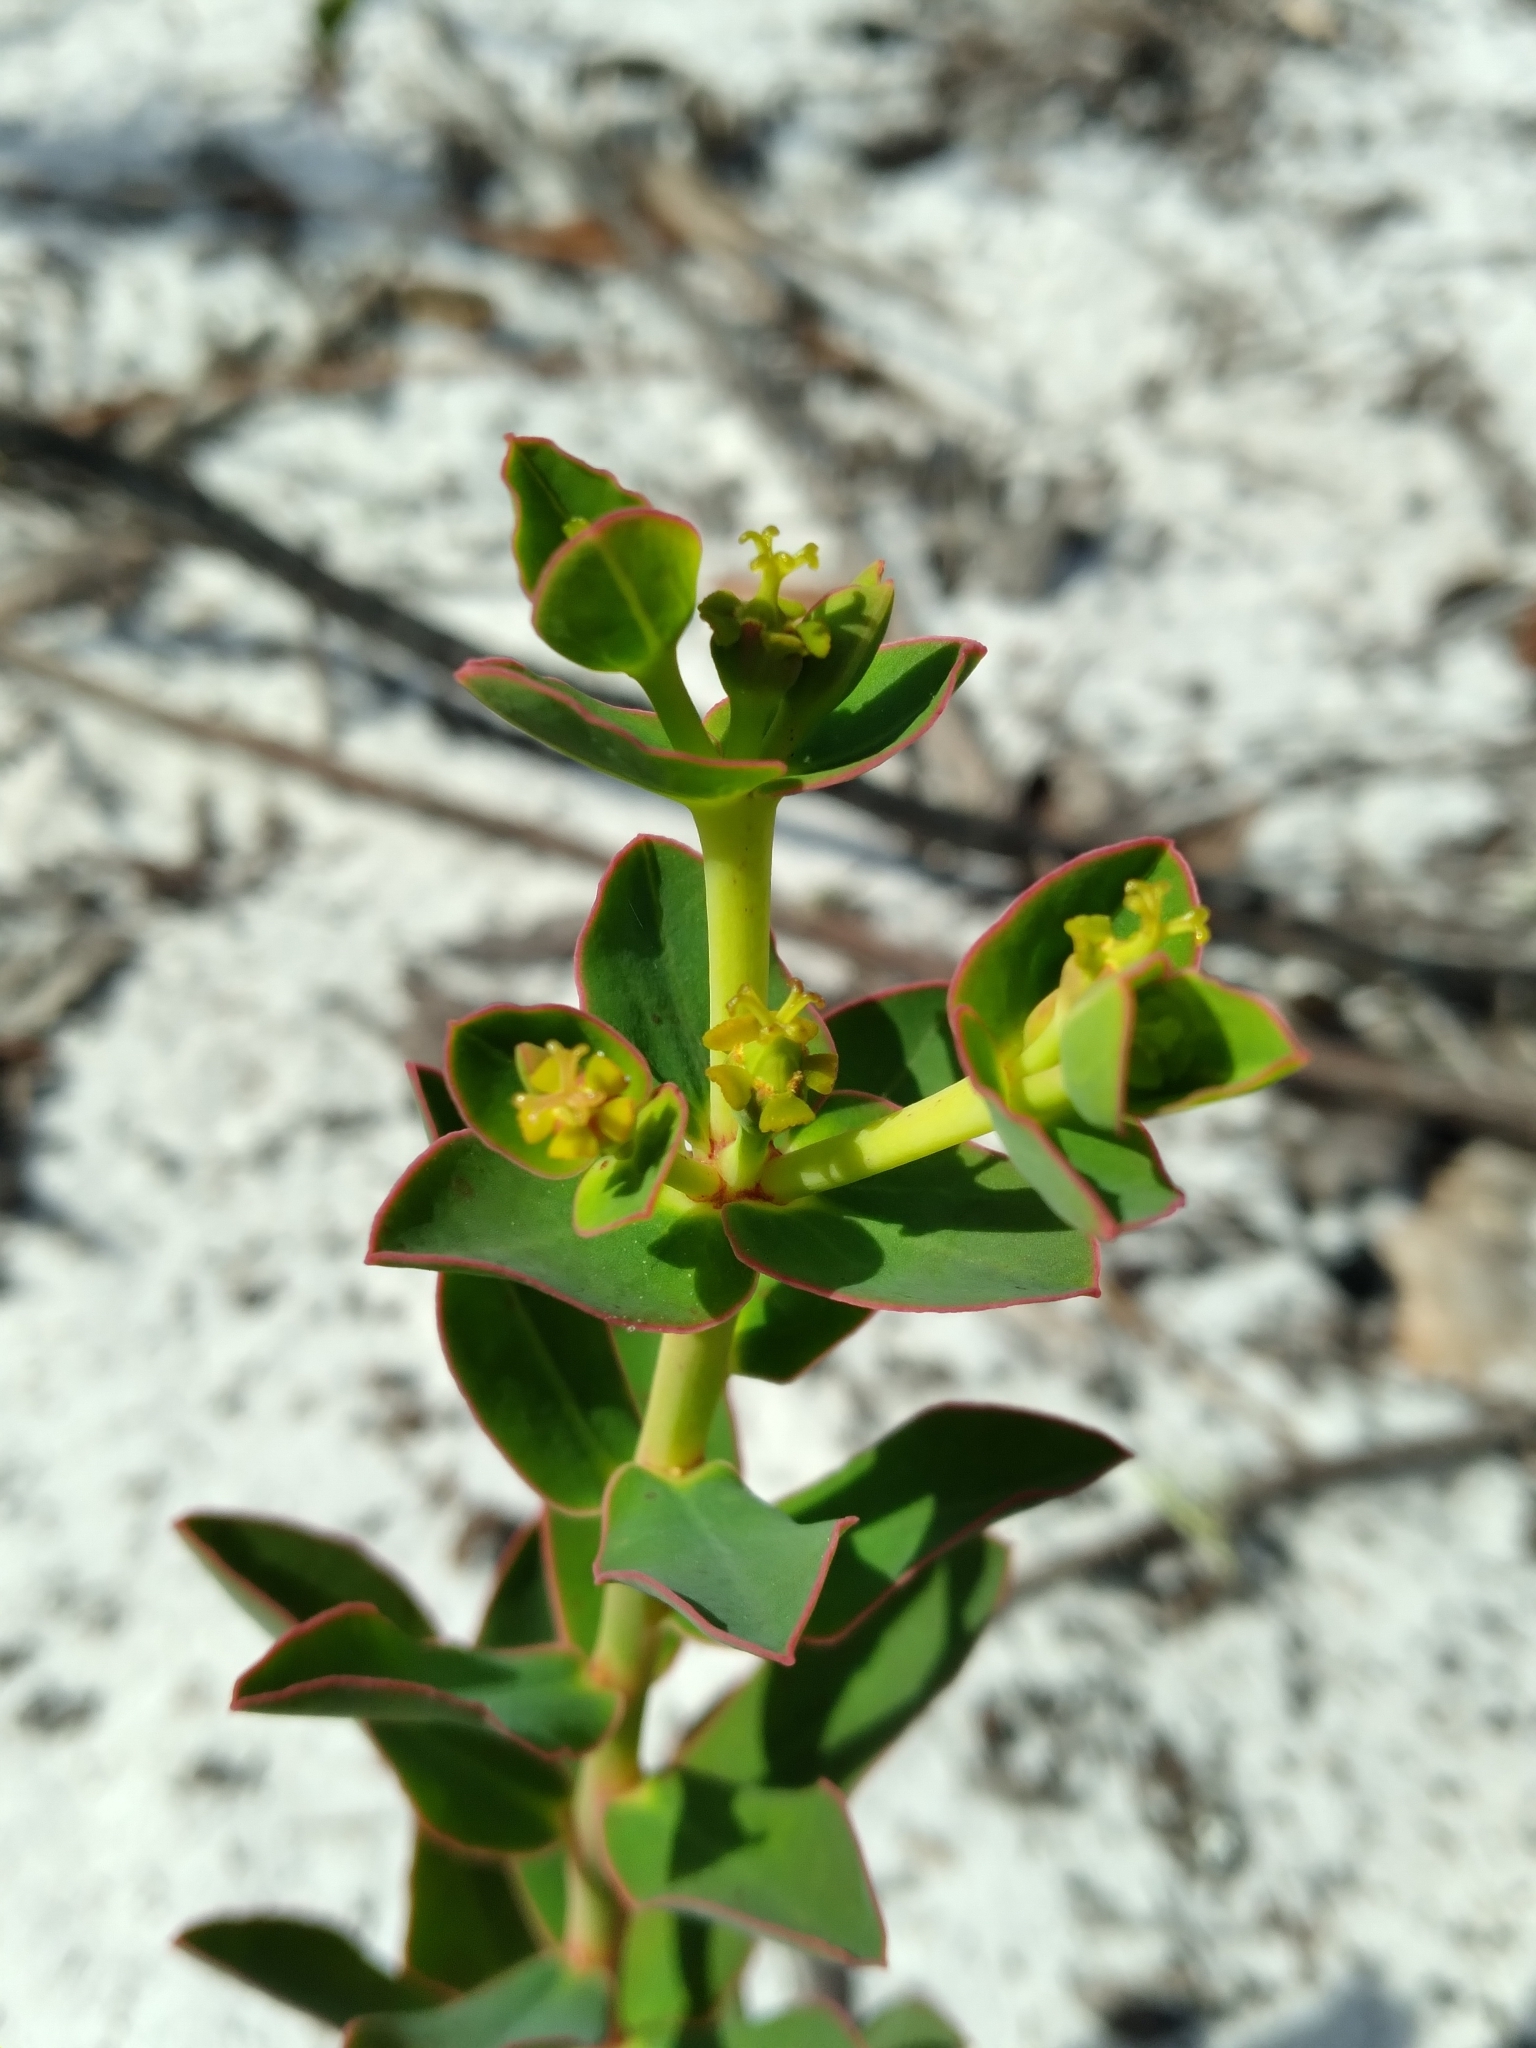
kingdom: Plantae
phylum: Tracheophyta
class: Magnoliopsida
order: Malpighiales
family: Euphorbiaceae
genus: Euphorbia
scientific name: Euphorbia rosescens
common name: Scrub spurge
